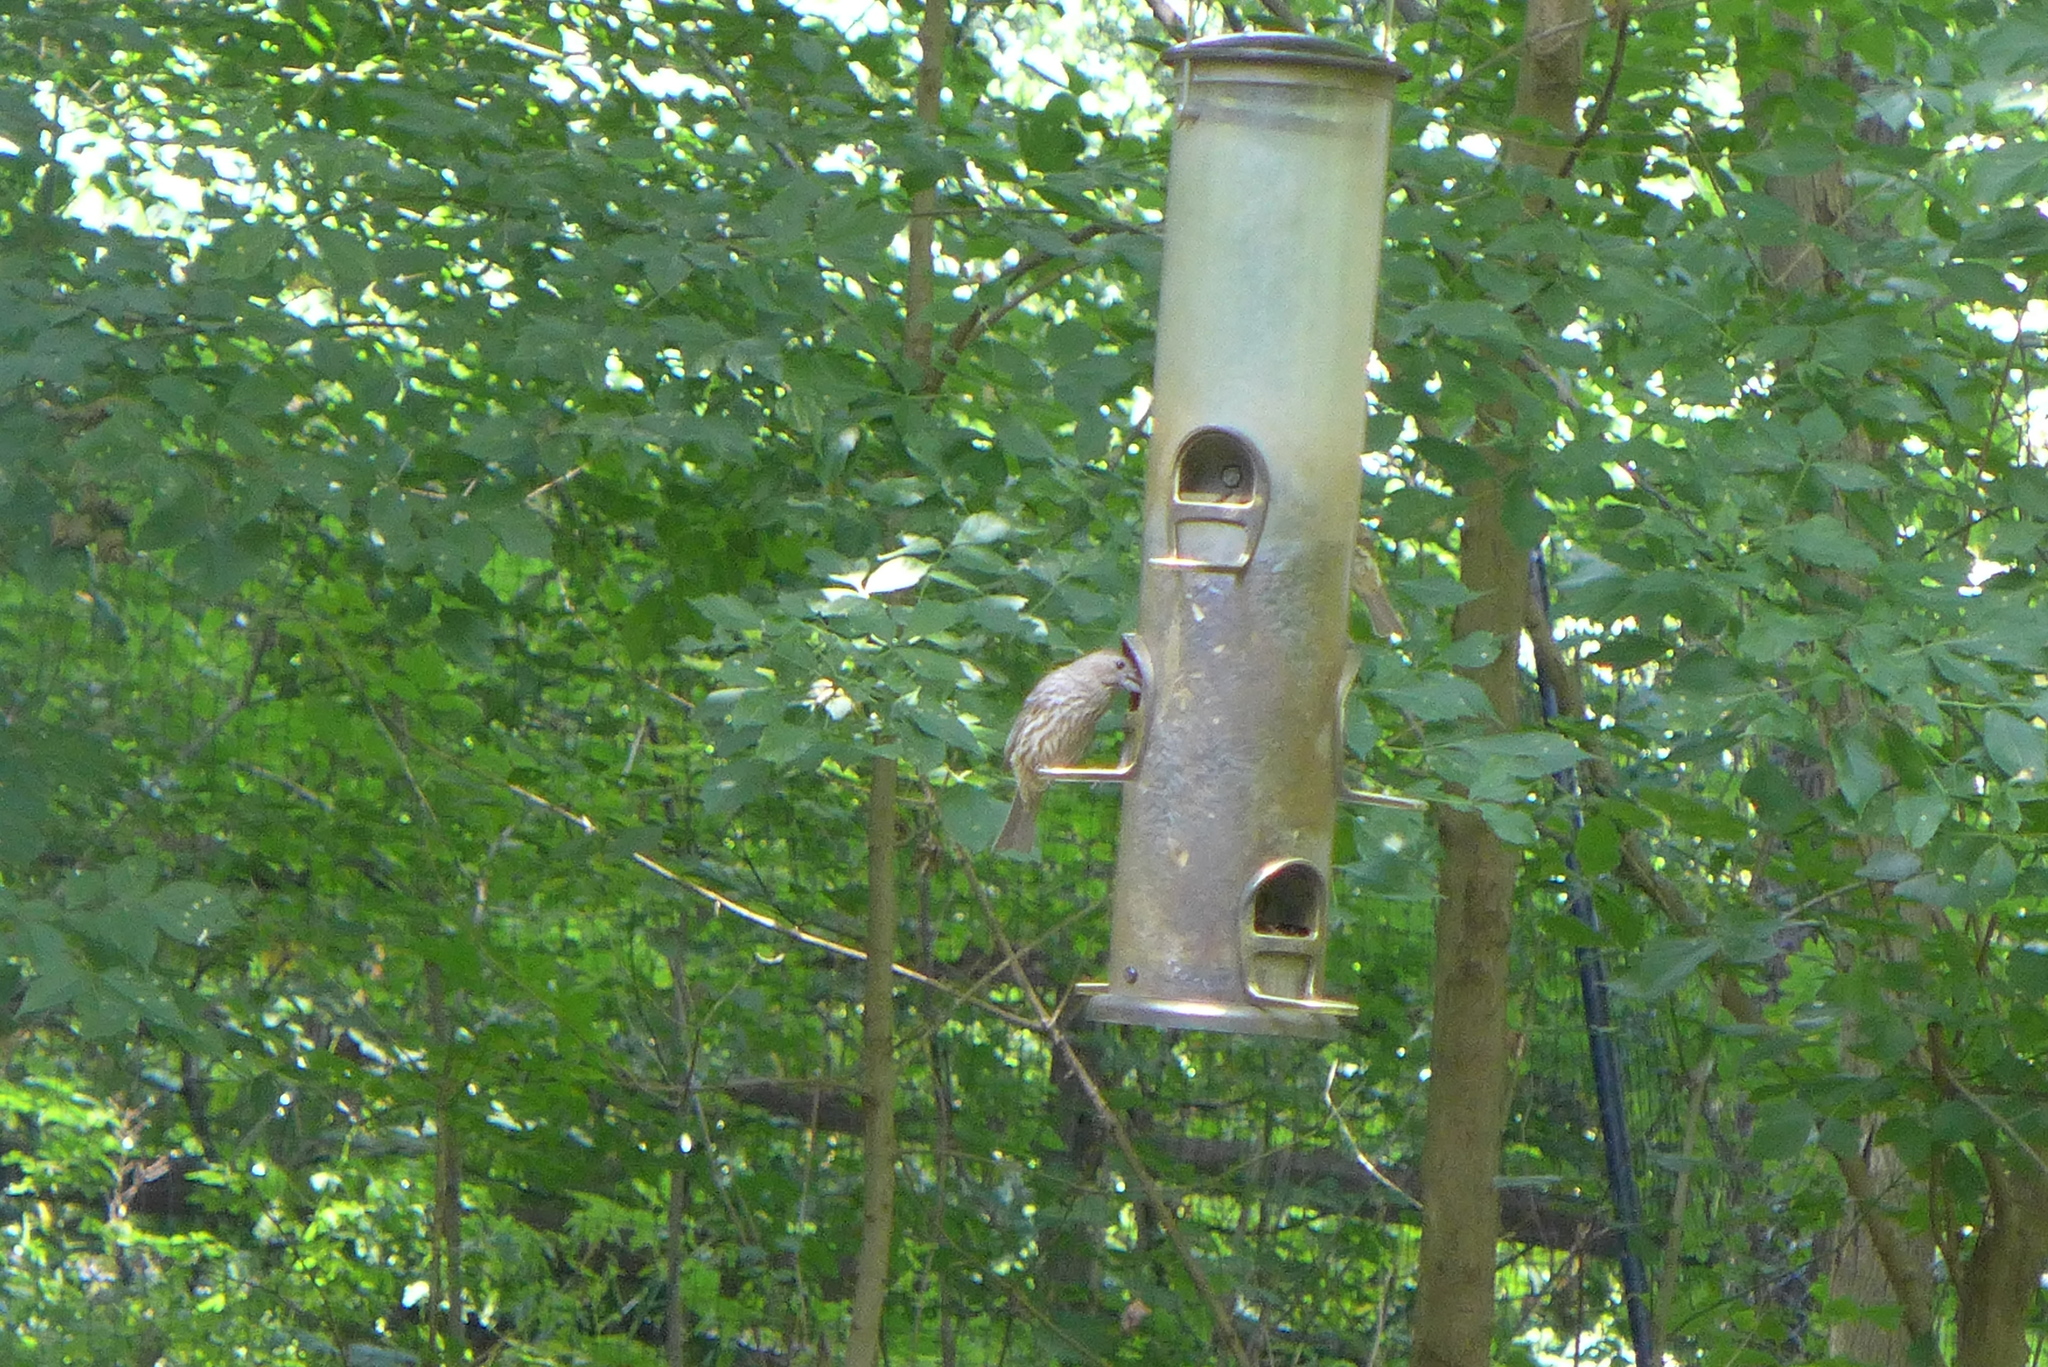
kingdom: Animalia
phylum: Chordata
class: Aves
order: Passeriformes
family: Fringillidae
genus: Haemorhous
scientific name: Haemorhous mexicanus
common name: House finch
